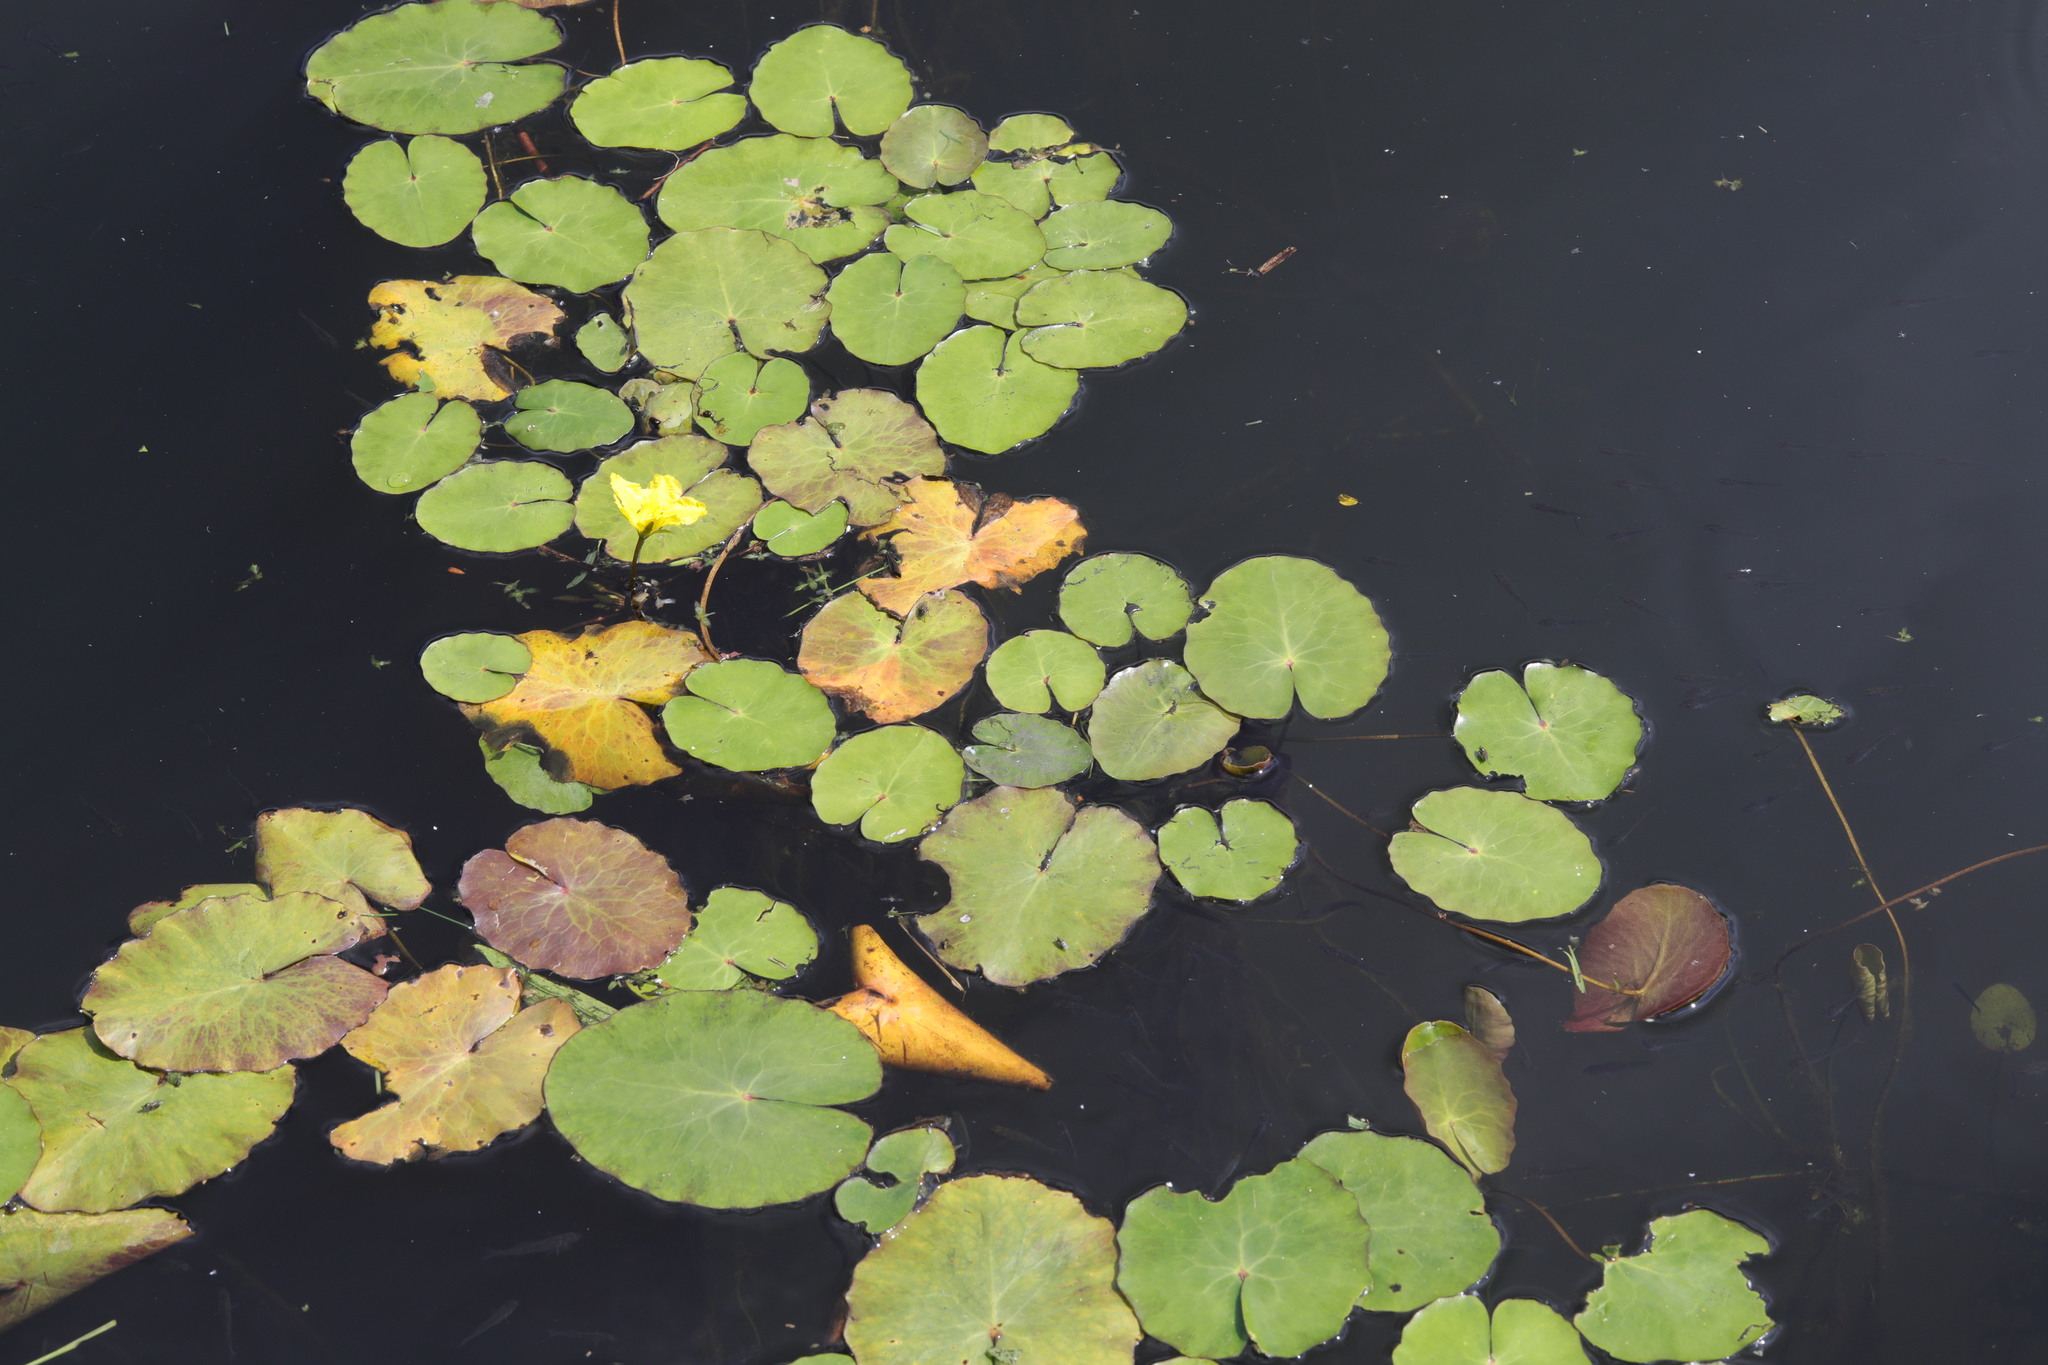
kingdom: Plantae
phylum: Tracheophyta
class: Magnoliopsida
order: Asterales
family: Menyanthaceae
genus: Nymphoides
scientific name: Nymphoides peltata
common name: Fringed water-lily
